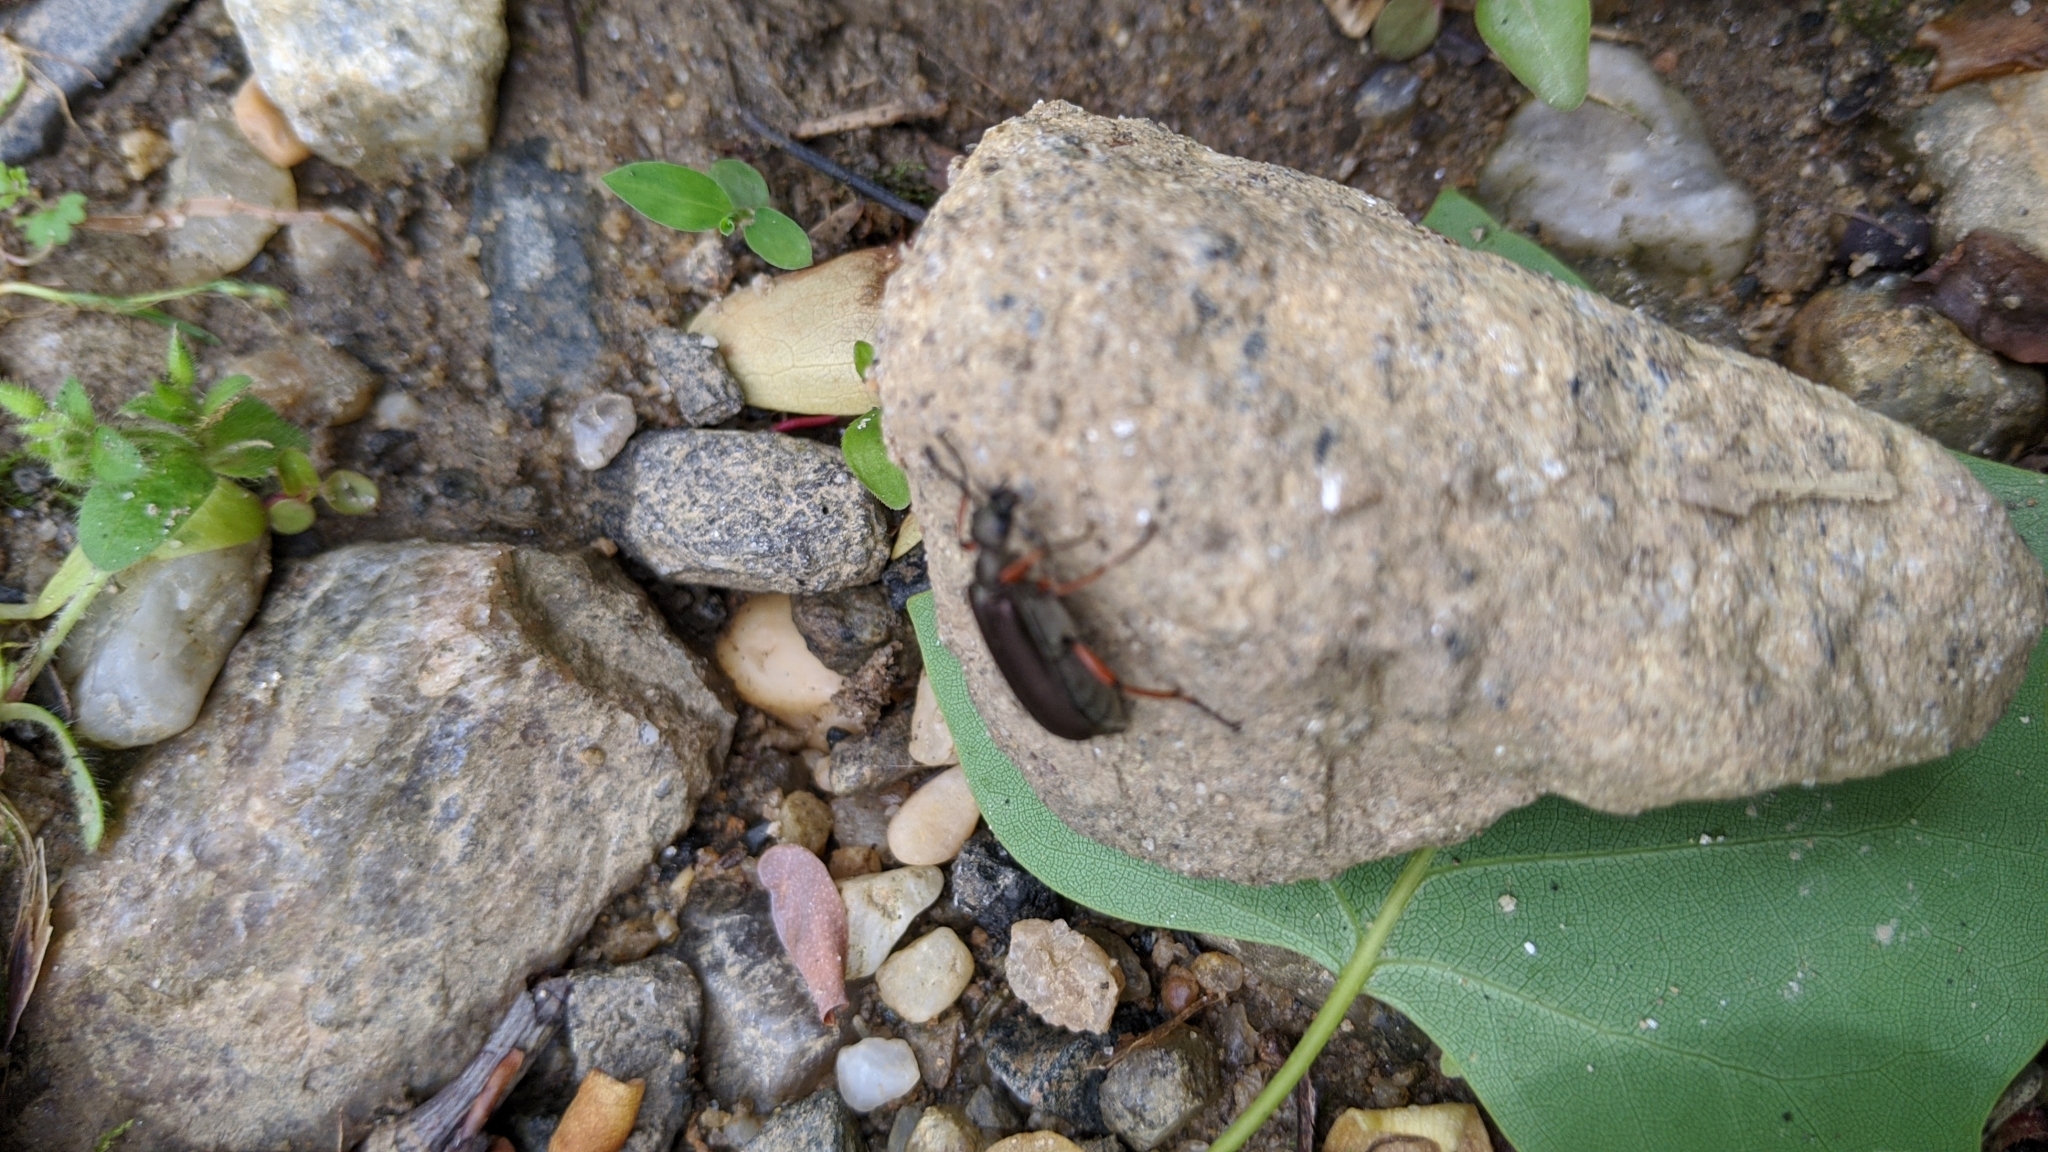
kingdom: Animalia
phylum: Arthropoda
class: Insecta
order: Coleoptera
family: Meloidae
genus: Lytta
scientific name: Lytta aenea
